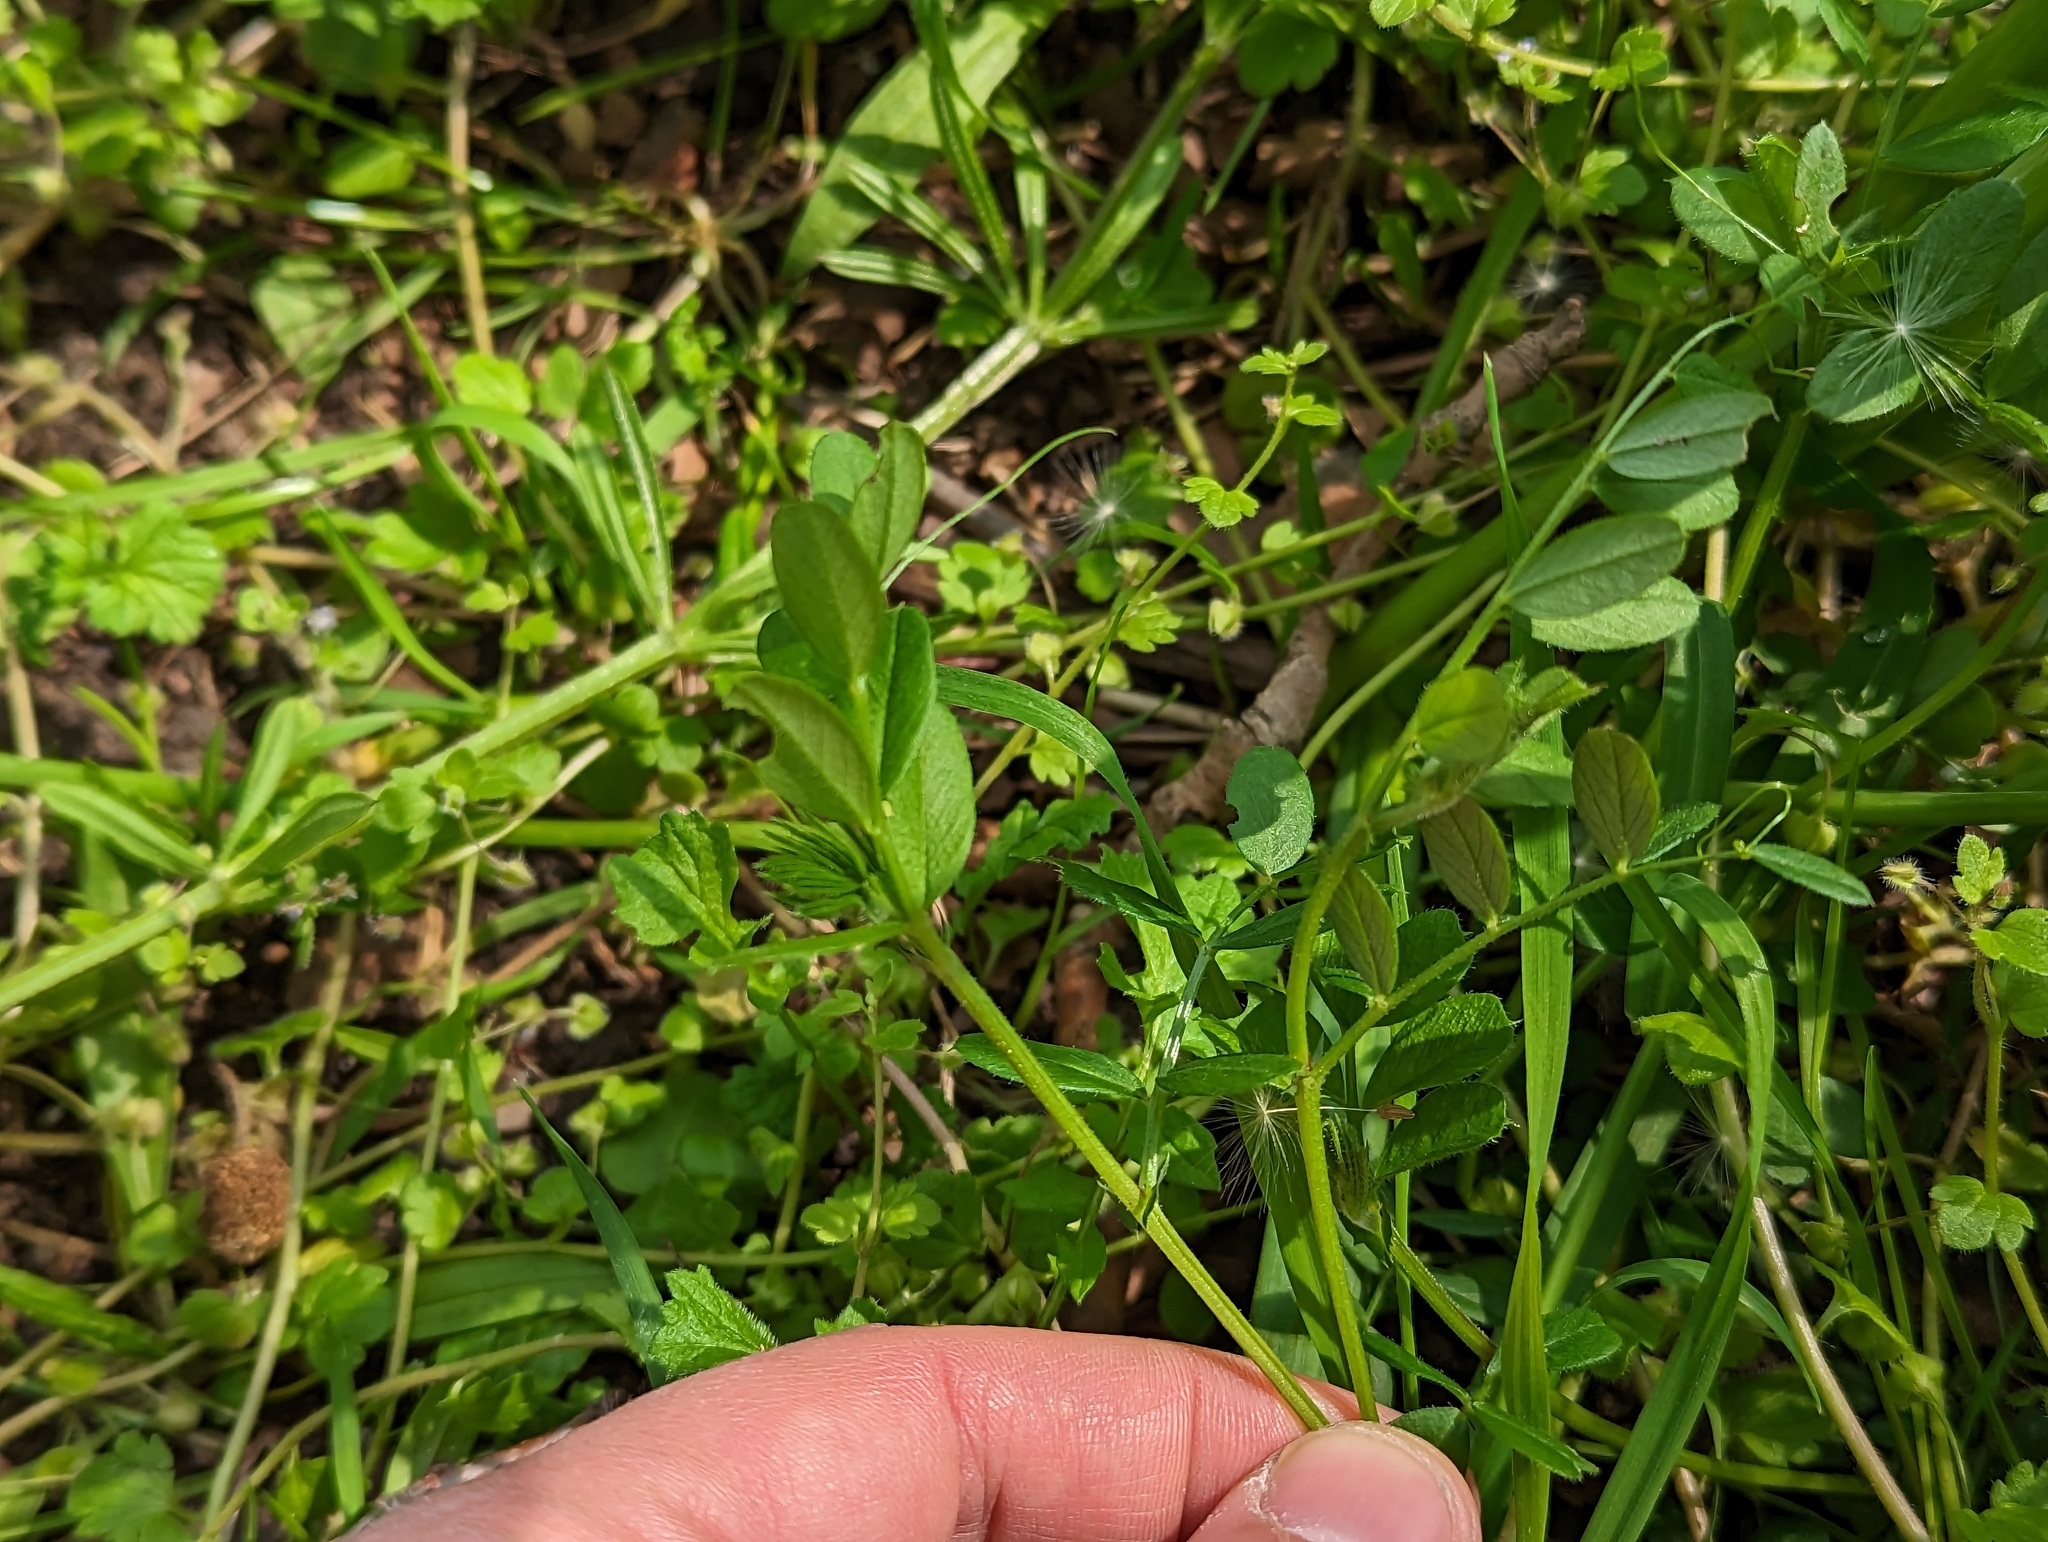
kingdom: Plantae
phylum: Tracheophyta
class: Magnoliopsida
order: Fabales
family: Fabaceae
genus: Vicia
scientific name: Vicia sativa
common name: Garden vetch
